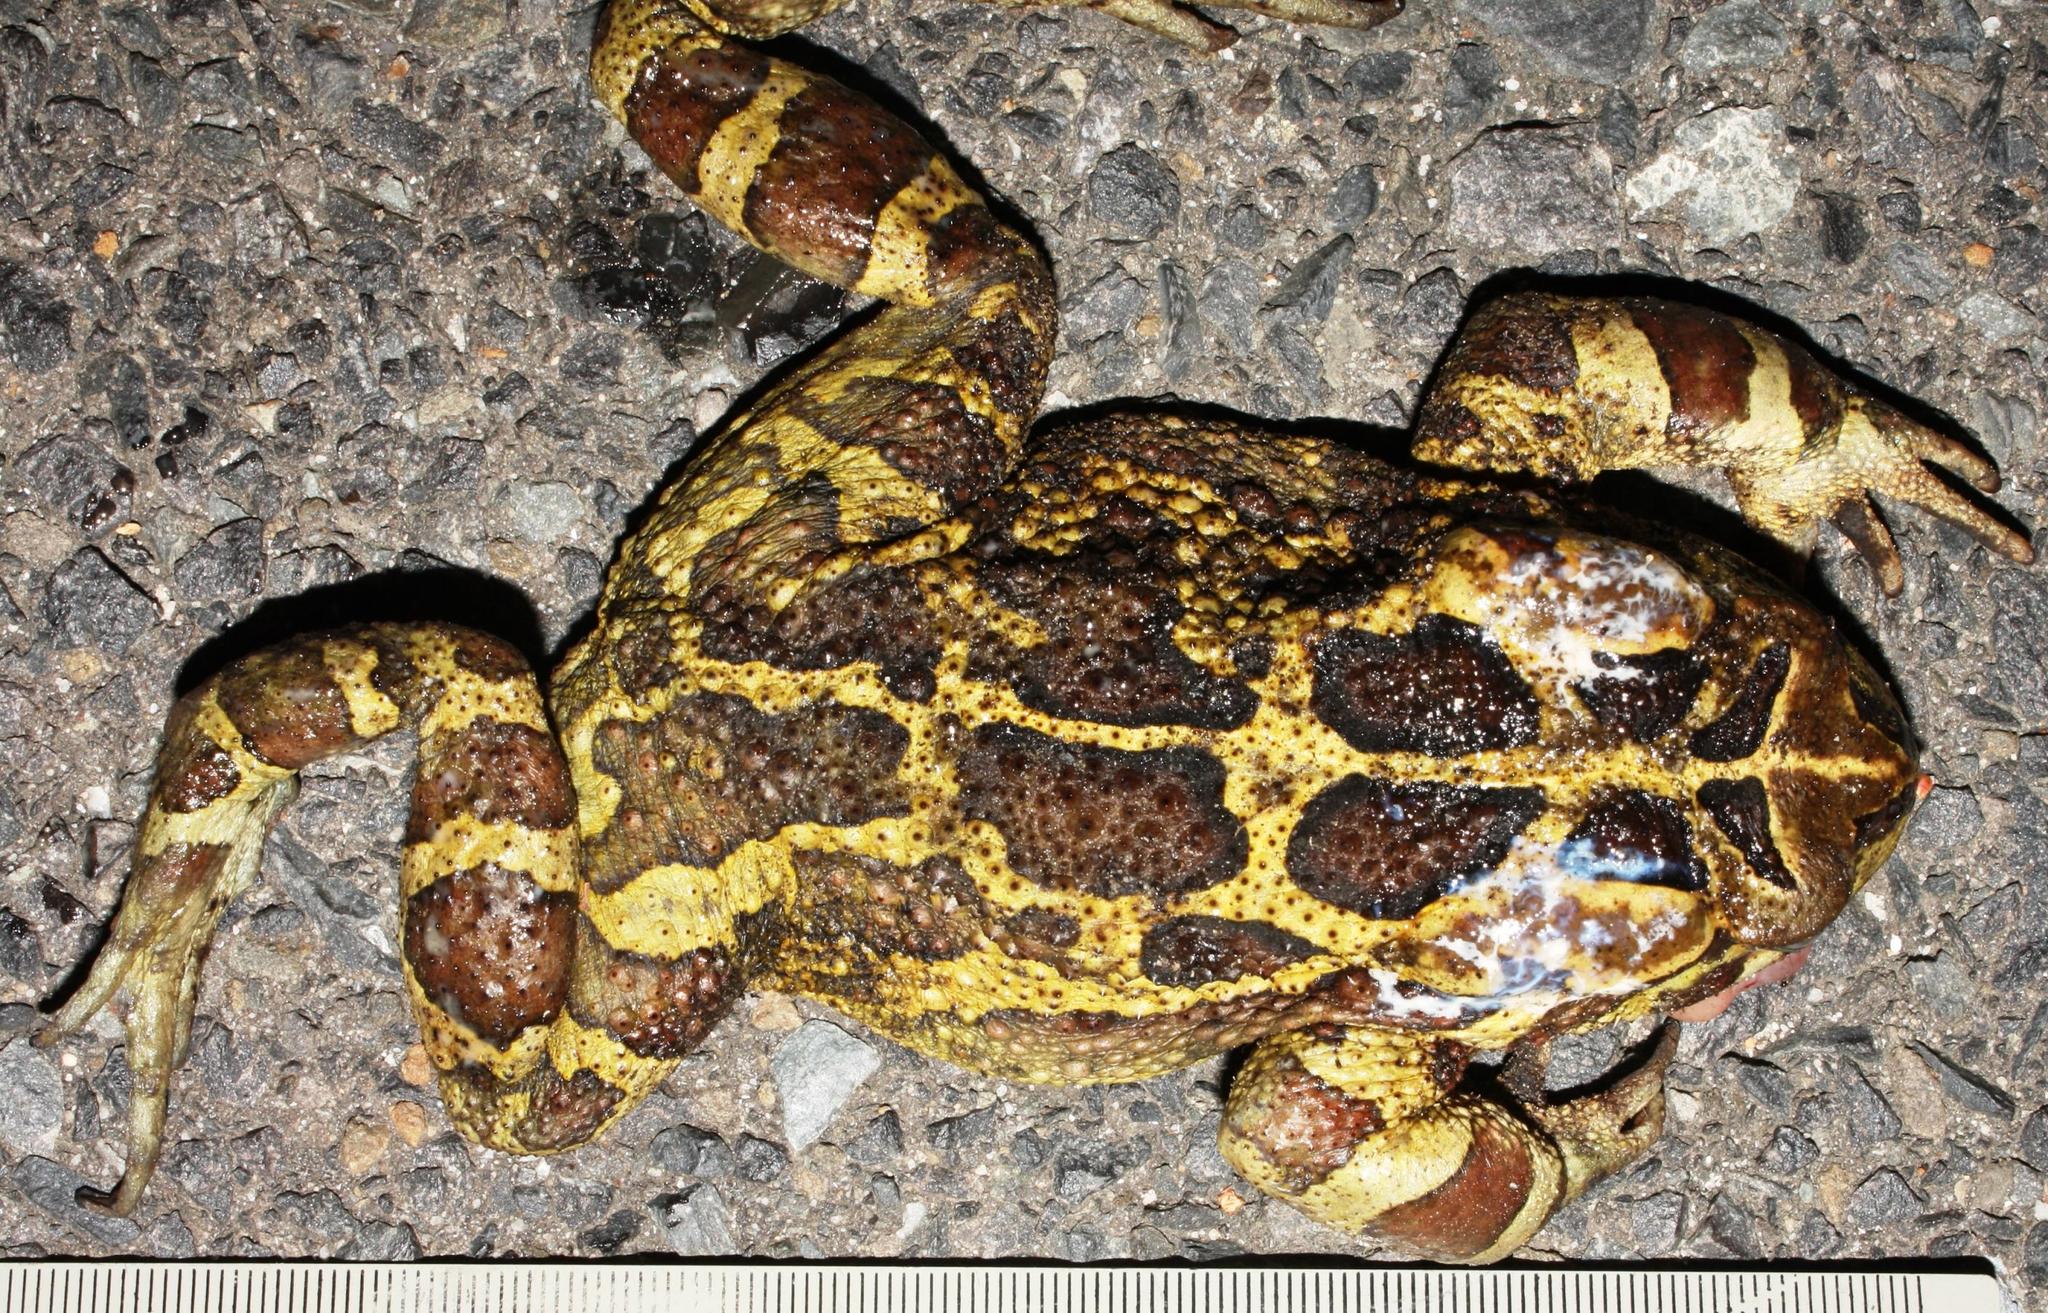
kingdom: Animalia
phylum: Chordata
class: Amphibia
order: Anura
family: Bufonidae
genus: Sclerophrys
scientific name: Sclerophrys pantherina
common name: Panther toad
